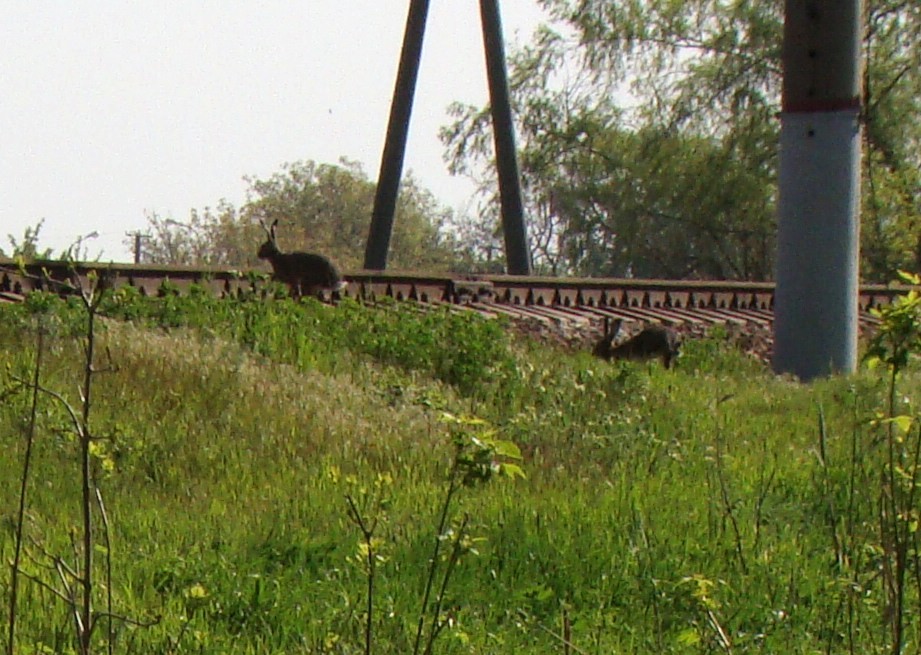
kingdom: Animalia
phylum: Chordata
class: Mammalia
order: Lagomorpha
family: Leporidae
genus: Lepus
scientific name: Lepus europaeus
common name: European hare
